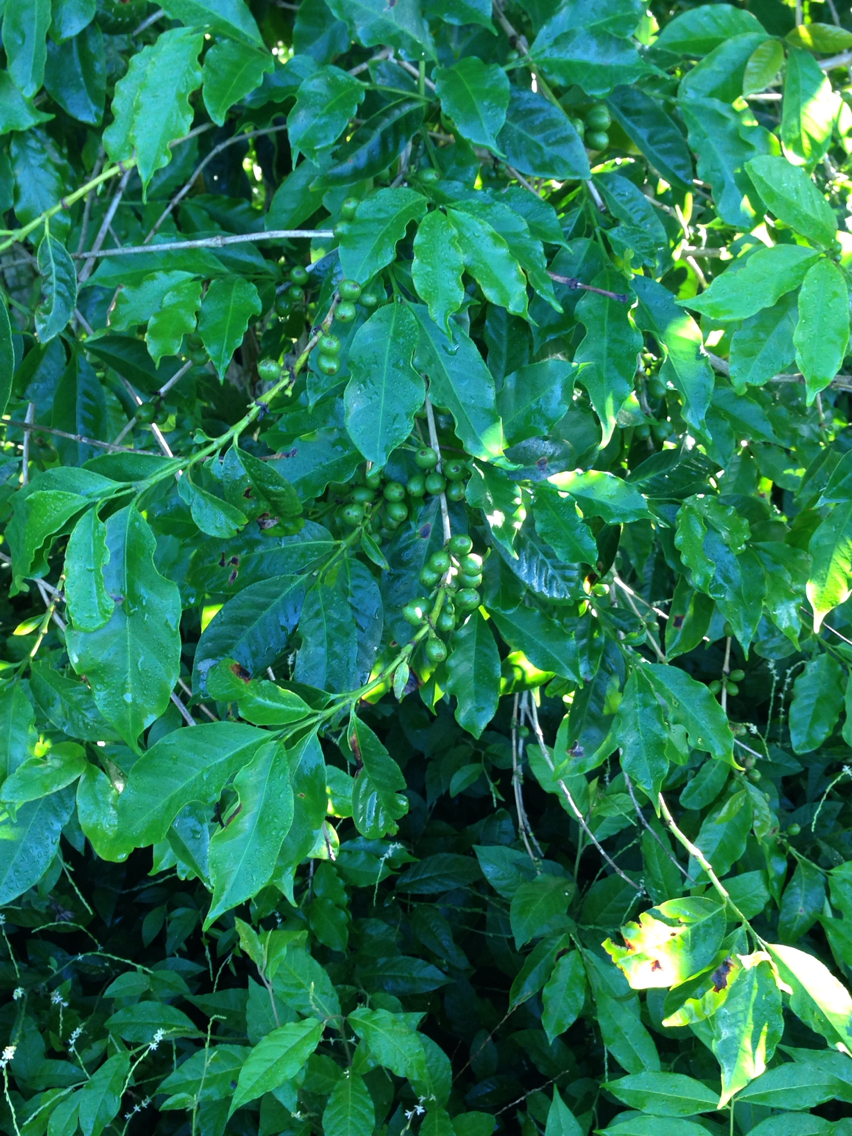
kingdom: Plantae
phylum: Tracheophyta
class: Magnoliopsida
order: Gentianales
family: Rubiaceae
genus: Coffea
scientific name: Coffea arabica
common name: Coffee
